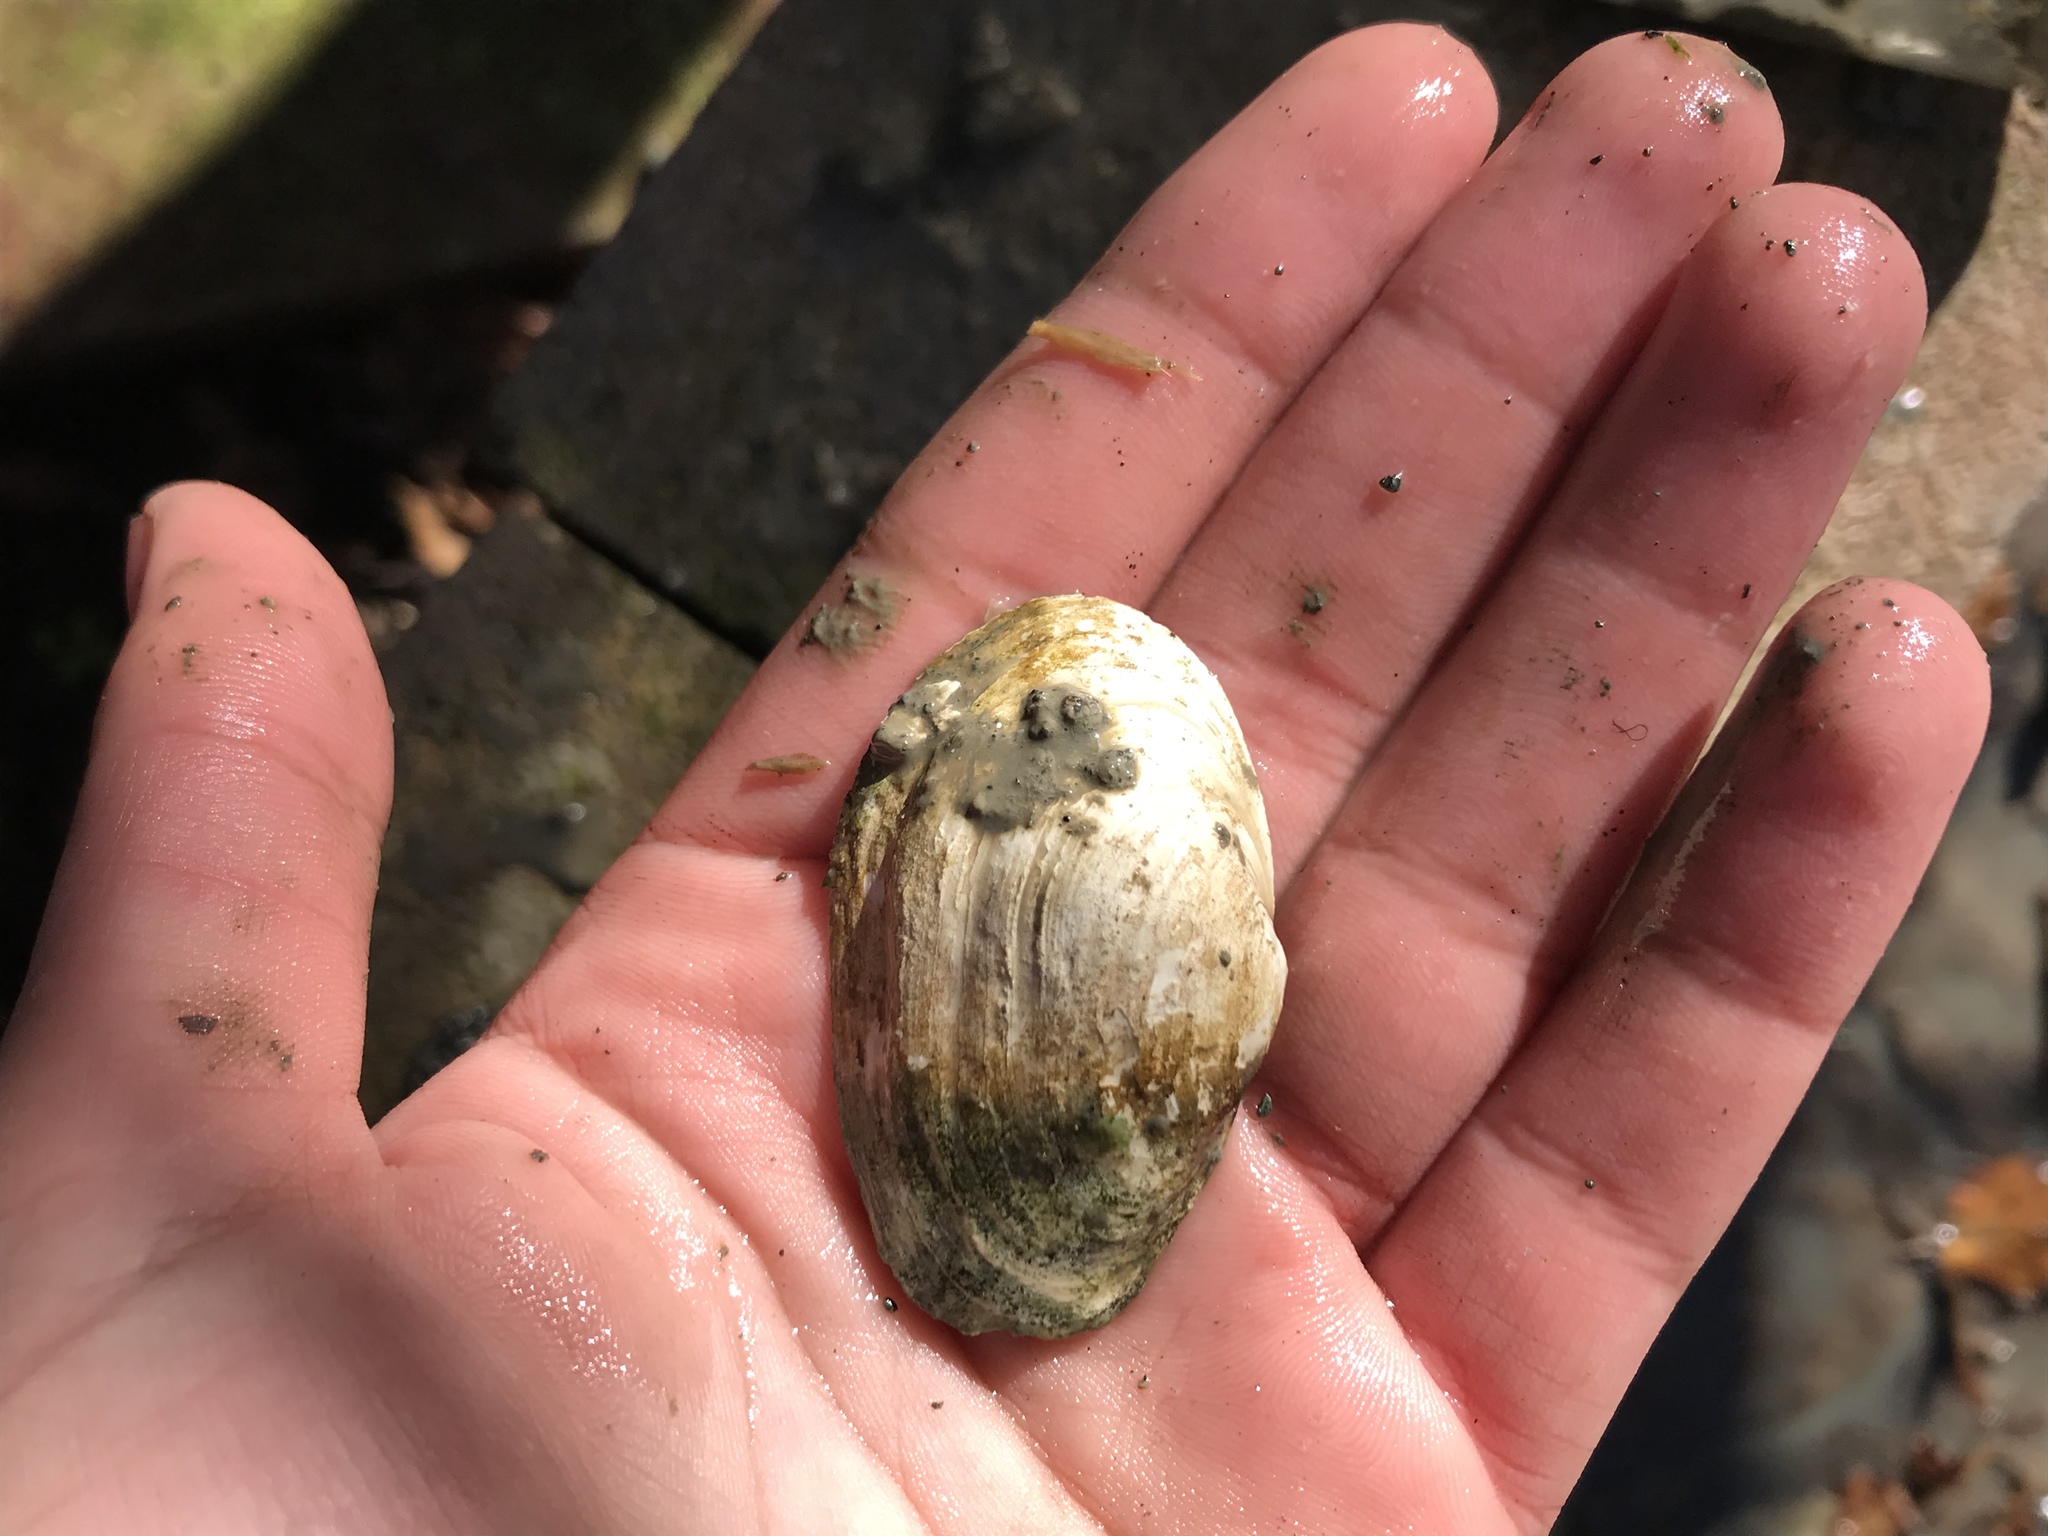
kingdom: Animalia
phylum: Mollusca
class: Bivalvia
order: Myida
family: Myidae
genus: Mya
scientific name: Mya arenaria
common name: Soft-shelled clam
